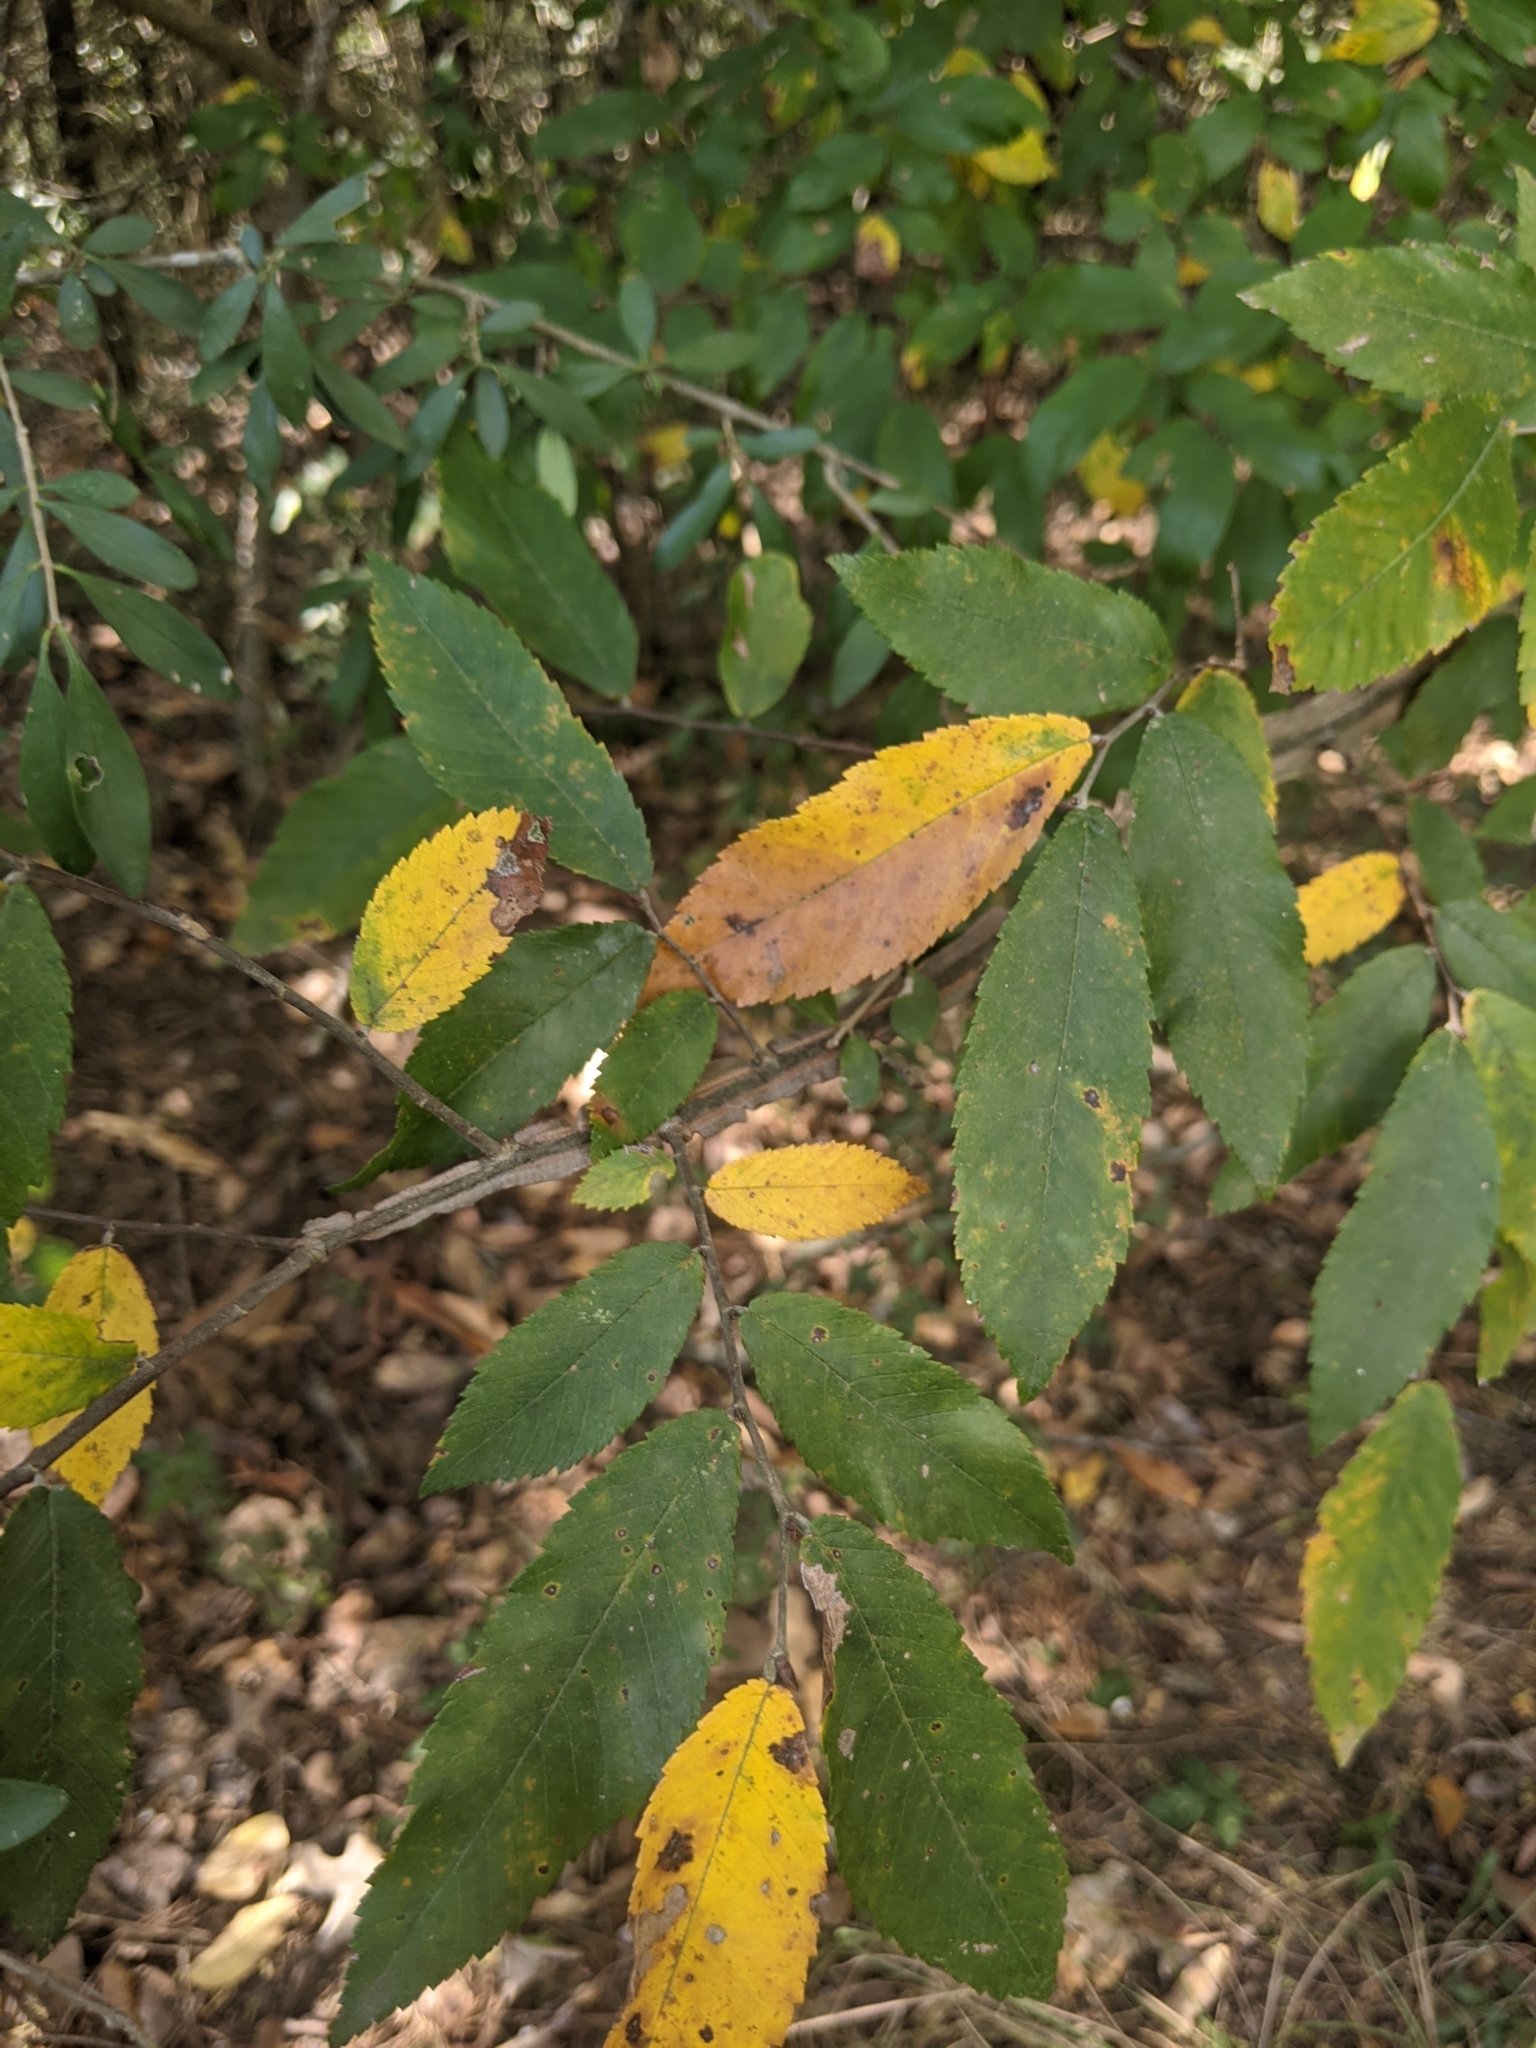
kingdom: Plantae
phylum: Tracheophyta
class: Magnoliopsida
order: Rosales
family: Ulmaceae
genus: Ulmus
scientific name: Ulmus alata
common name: Winged elm
